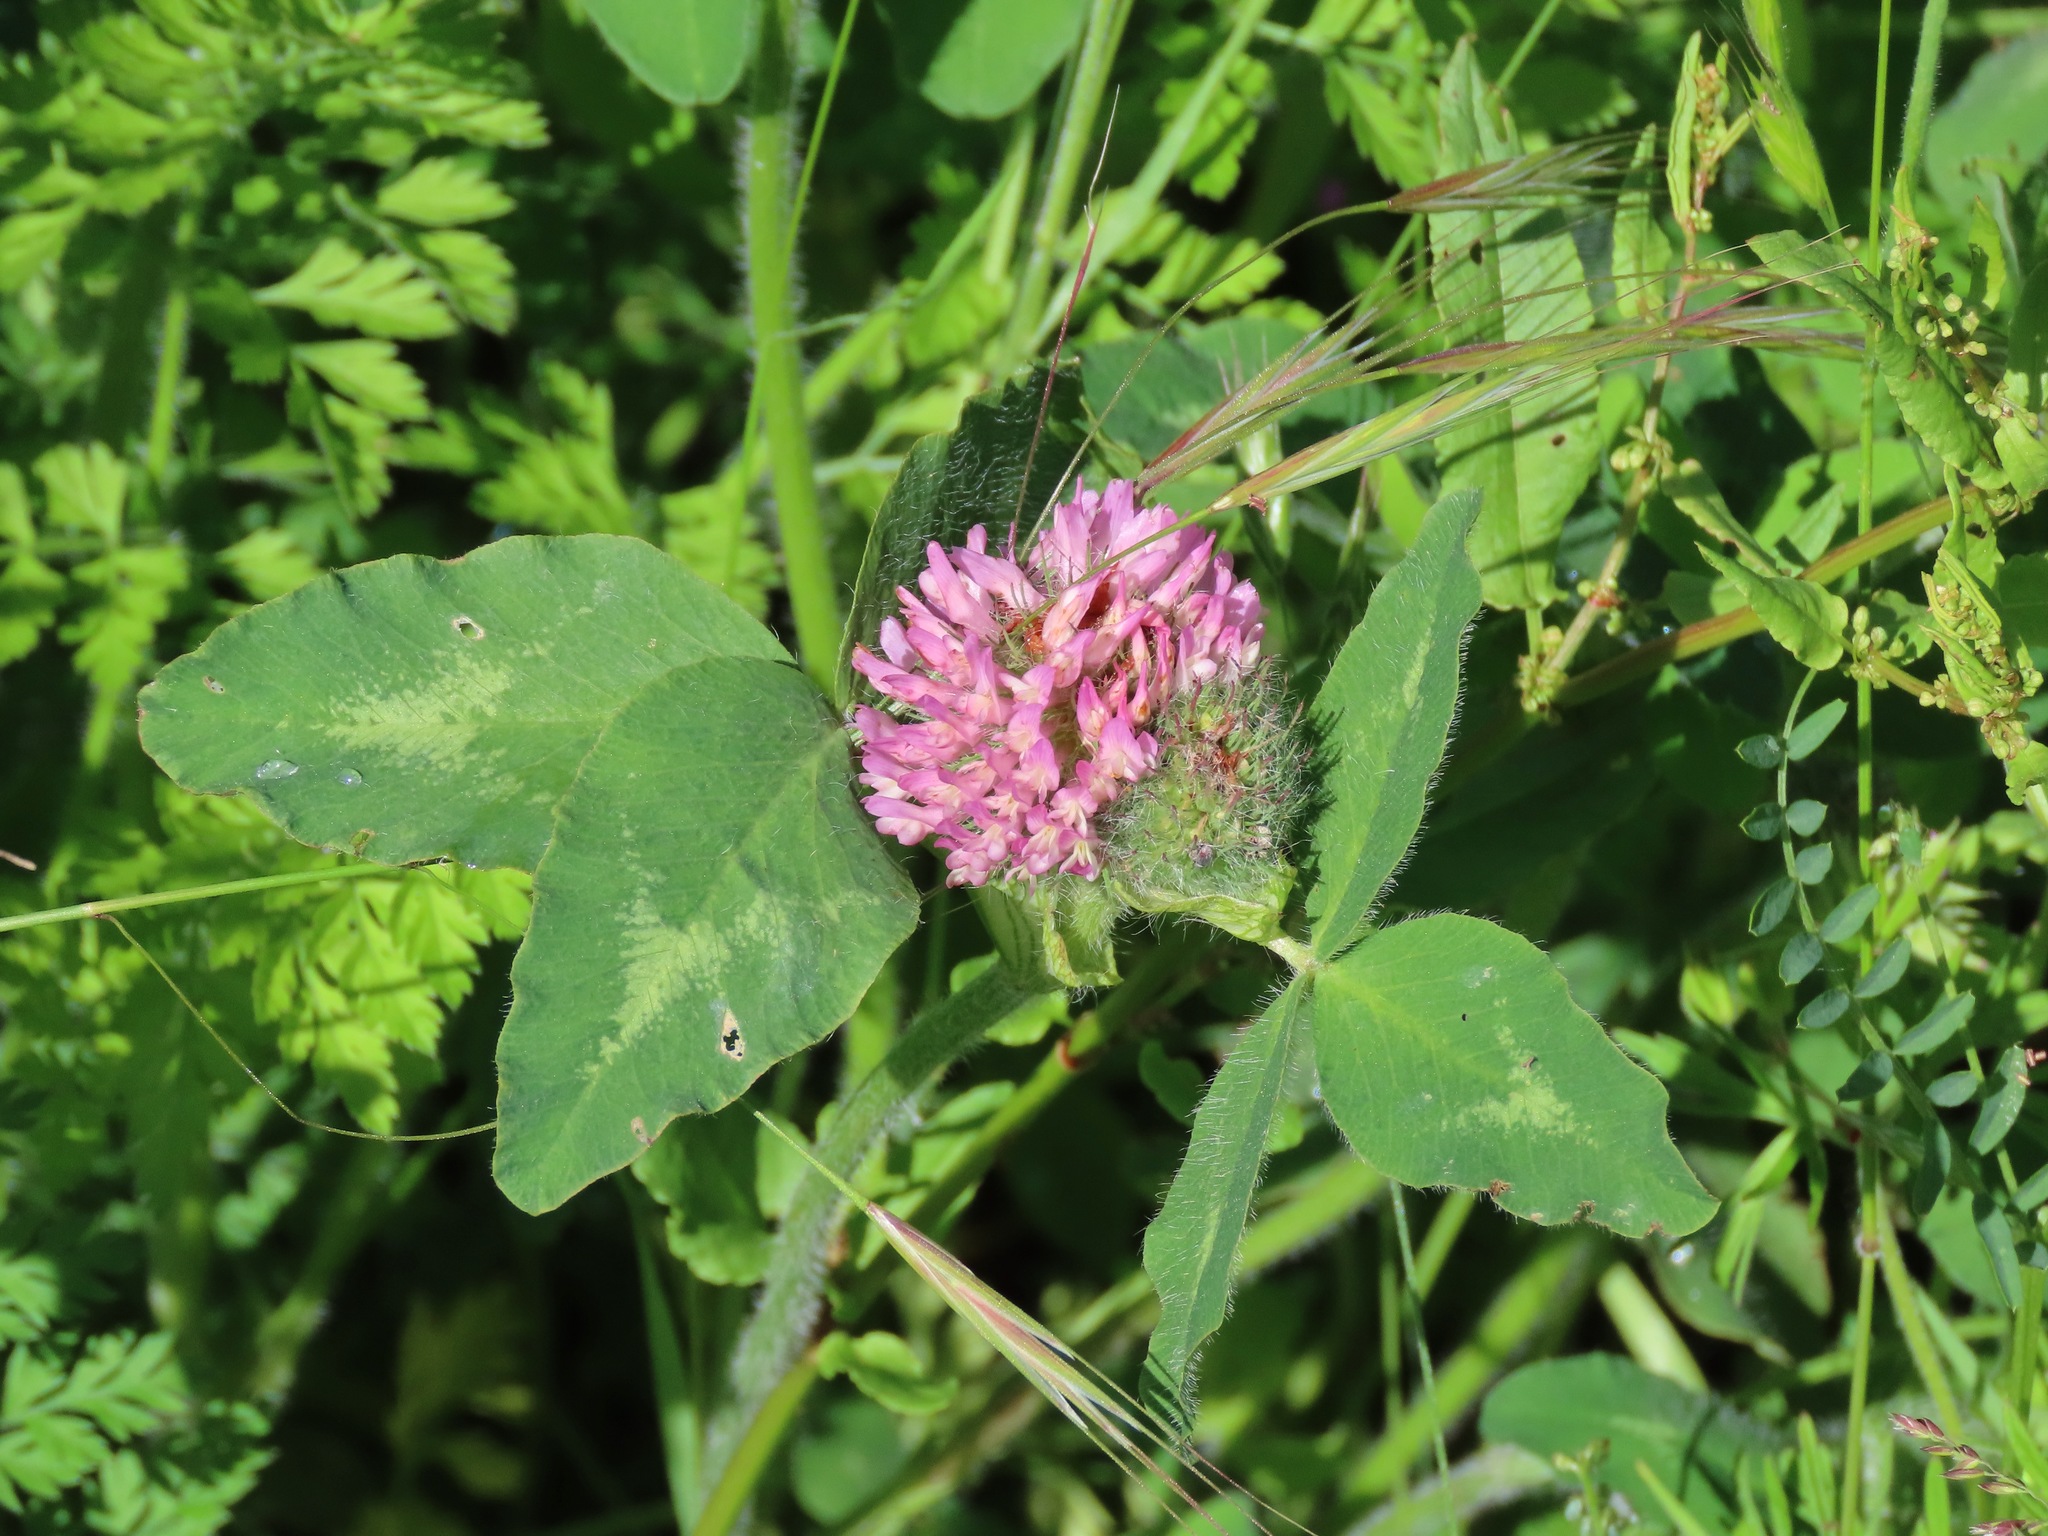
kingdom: Plantae
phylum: Tracheophyta
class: Magnoliopsida
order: Fabales
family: Fabaceae
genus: Trifolium
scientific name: Trifolium pratense
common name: Red clover
